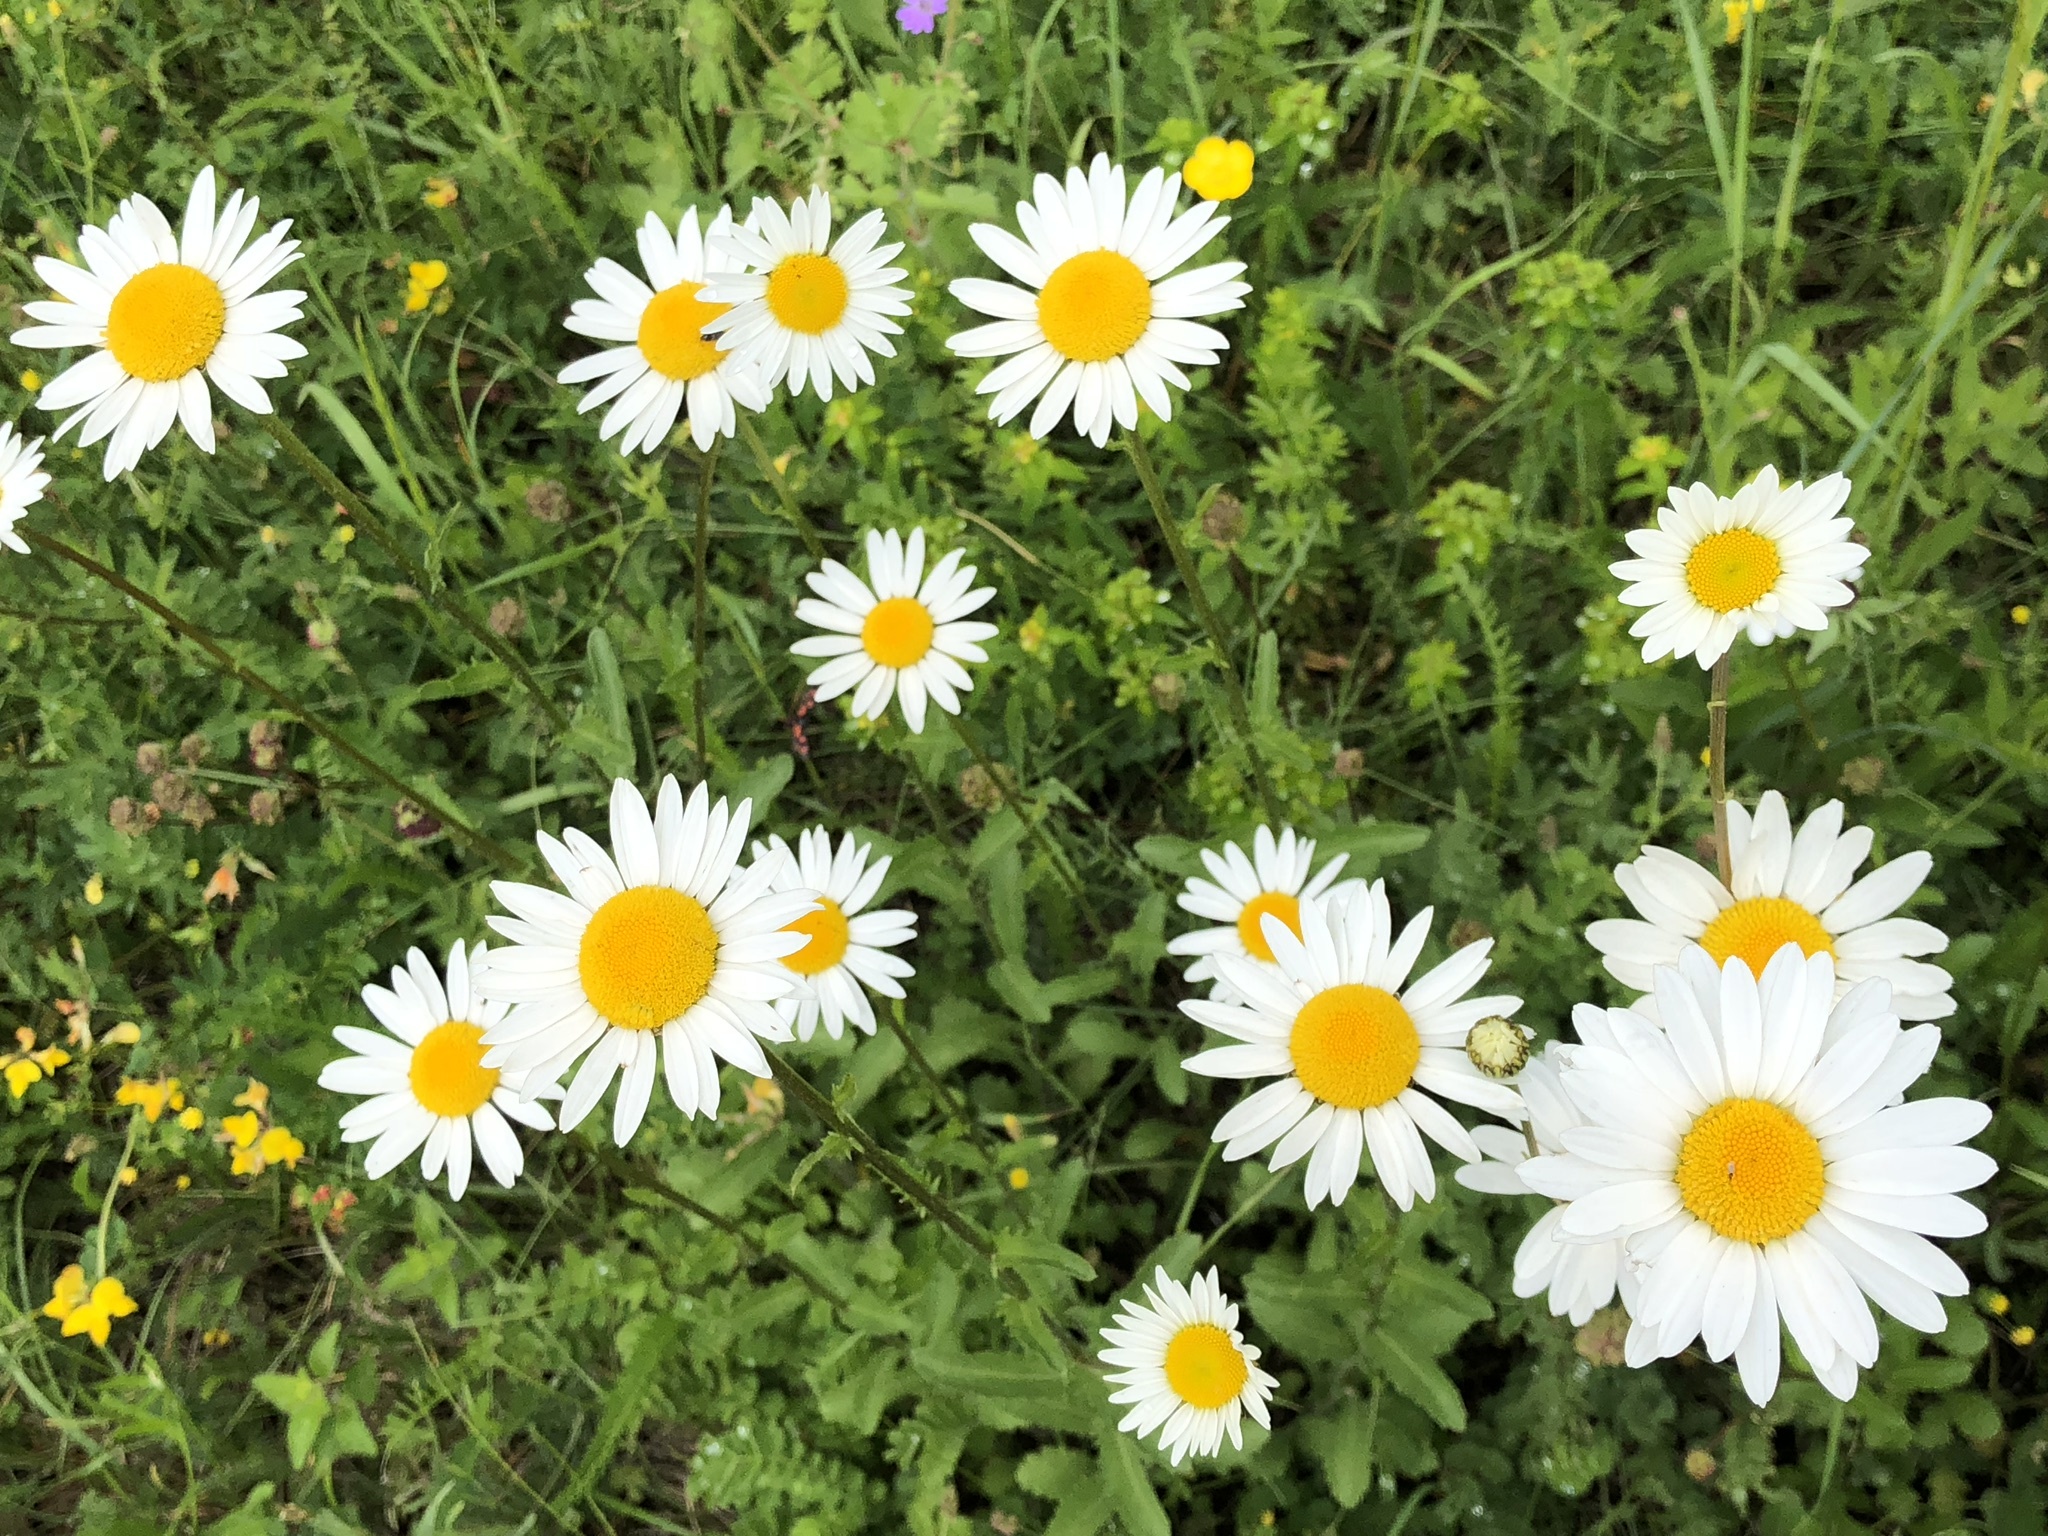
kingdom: Plantae
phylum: Tracheophyta
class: Magnoliopsida
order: Asterales
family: Asteraceae
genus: Leucanthemum
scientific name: Leucanthemum vulgare
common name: Oxeye daisy
